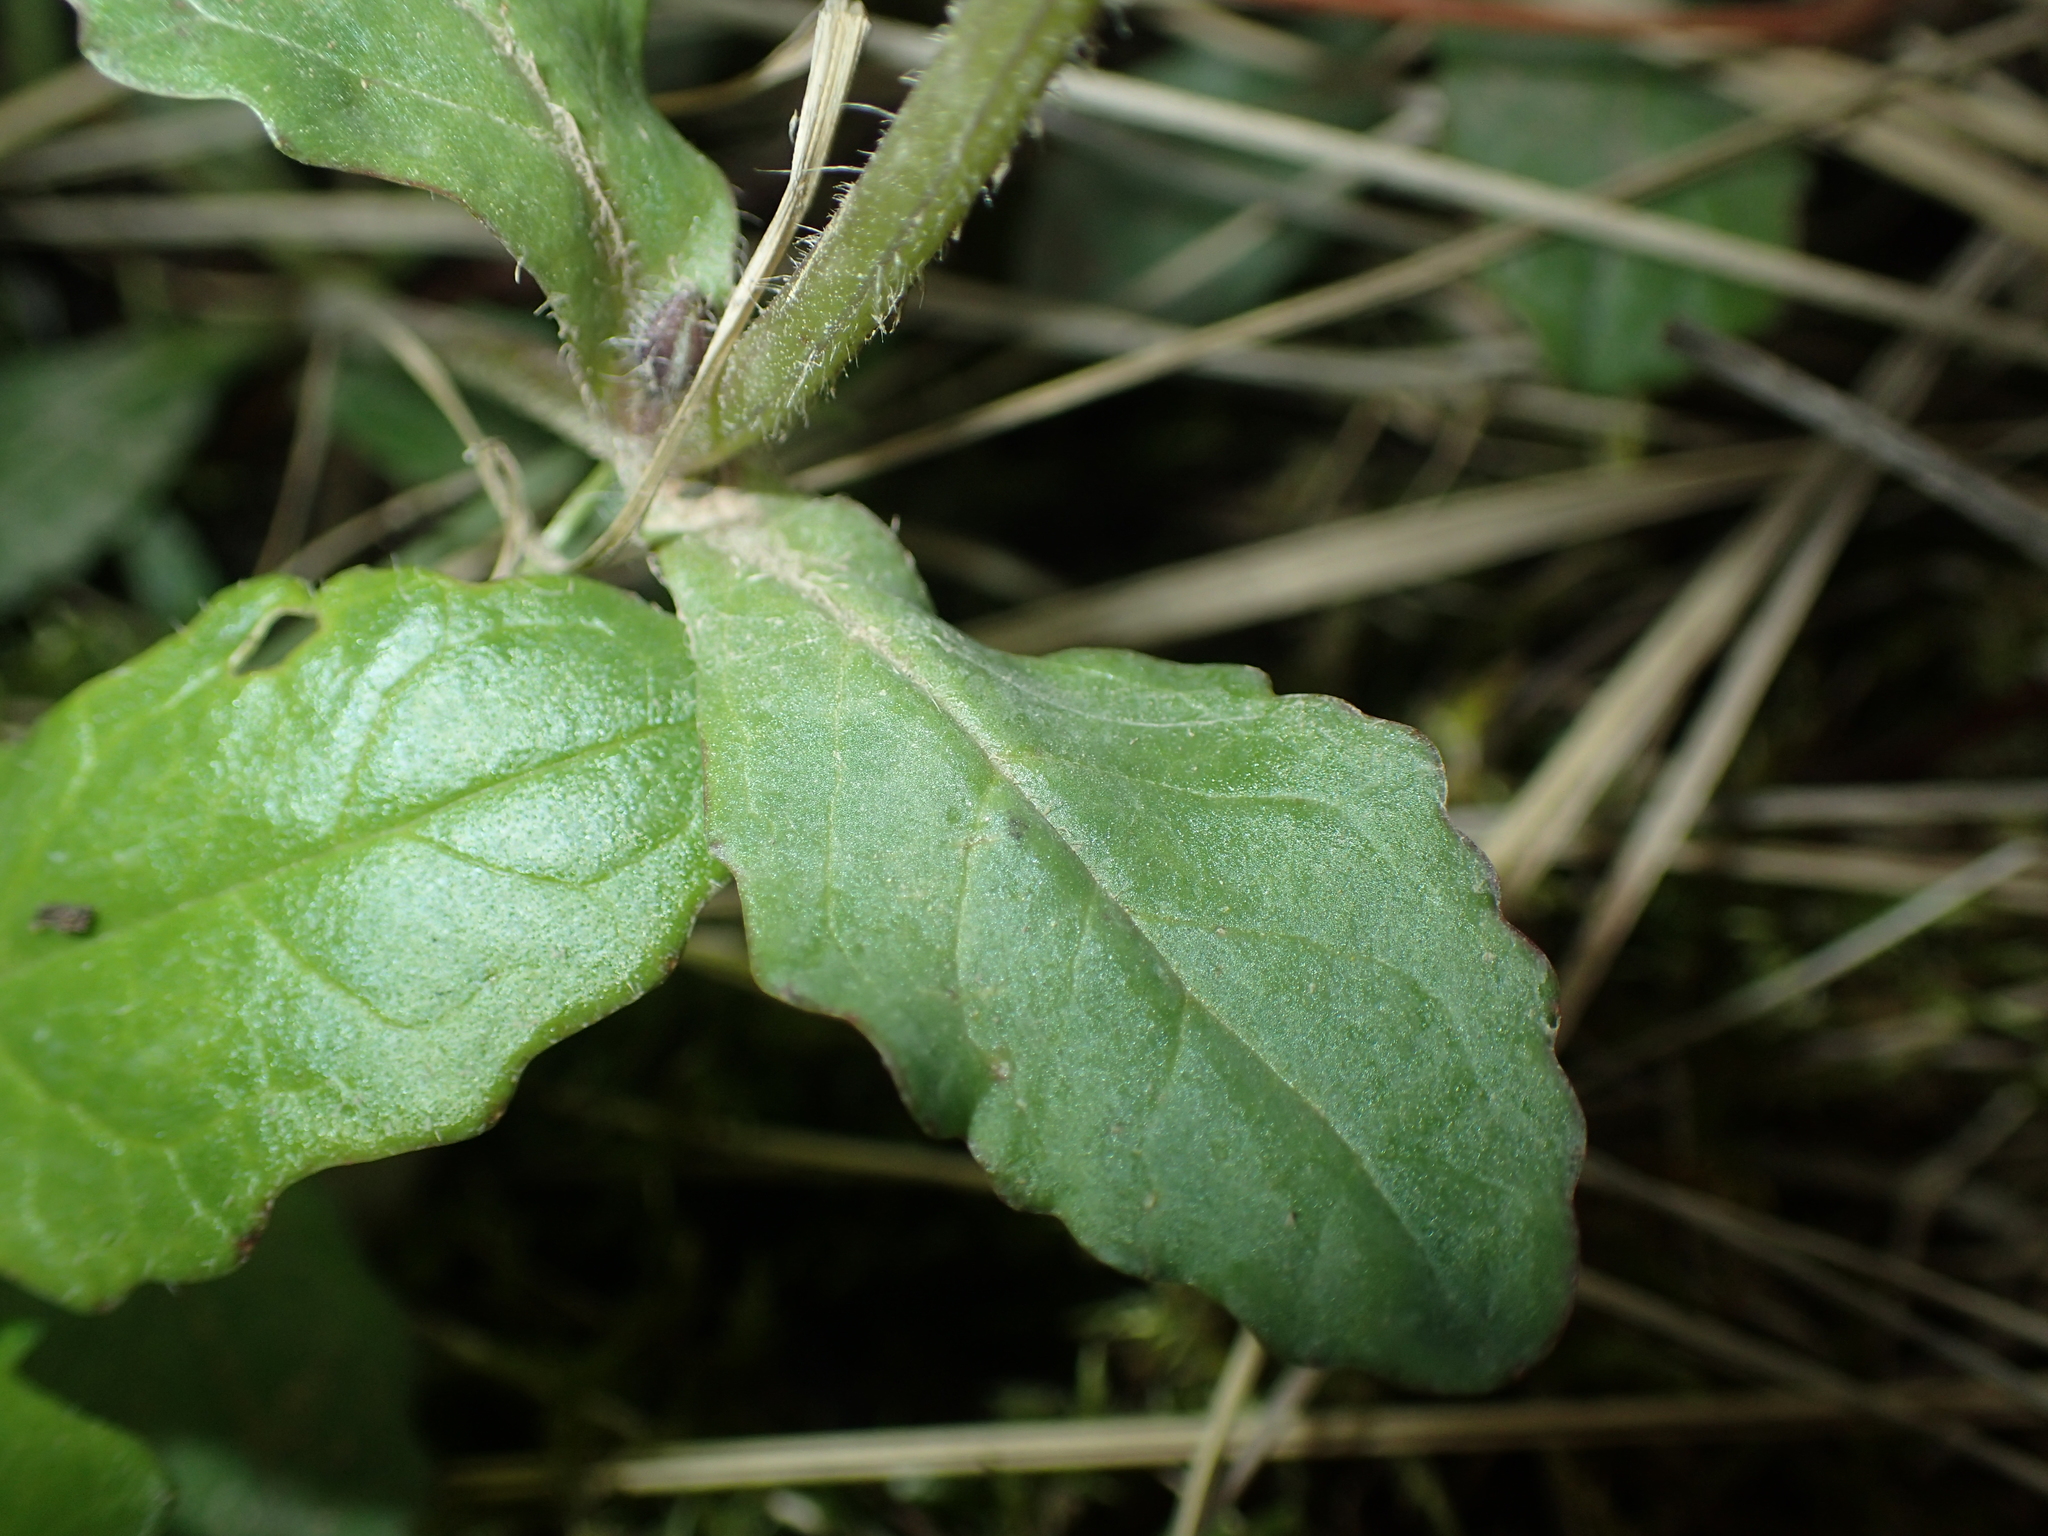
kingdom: Plantae
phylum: Tracheophyta
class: Magnoliopsida
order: Lamiales
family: Lamiaceae
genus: Ajuga
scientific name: Ajuga reptans
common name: Bugle
